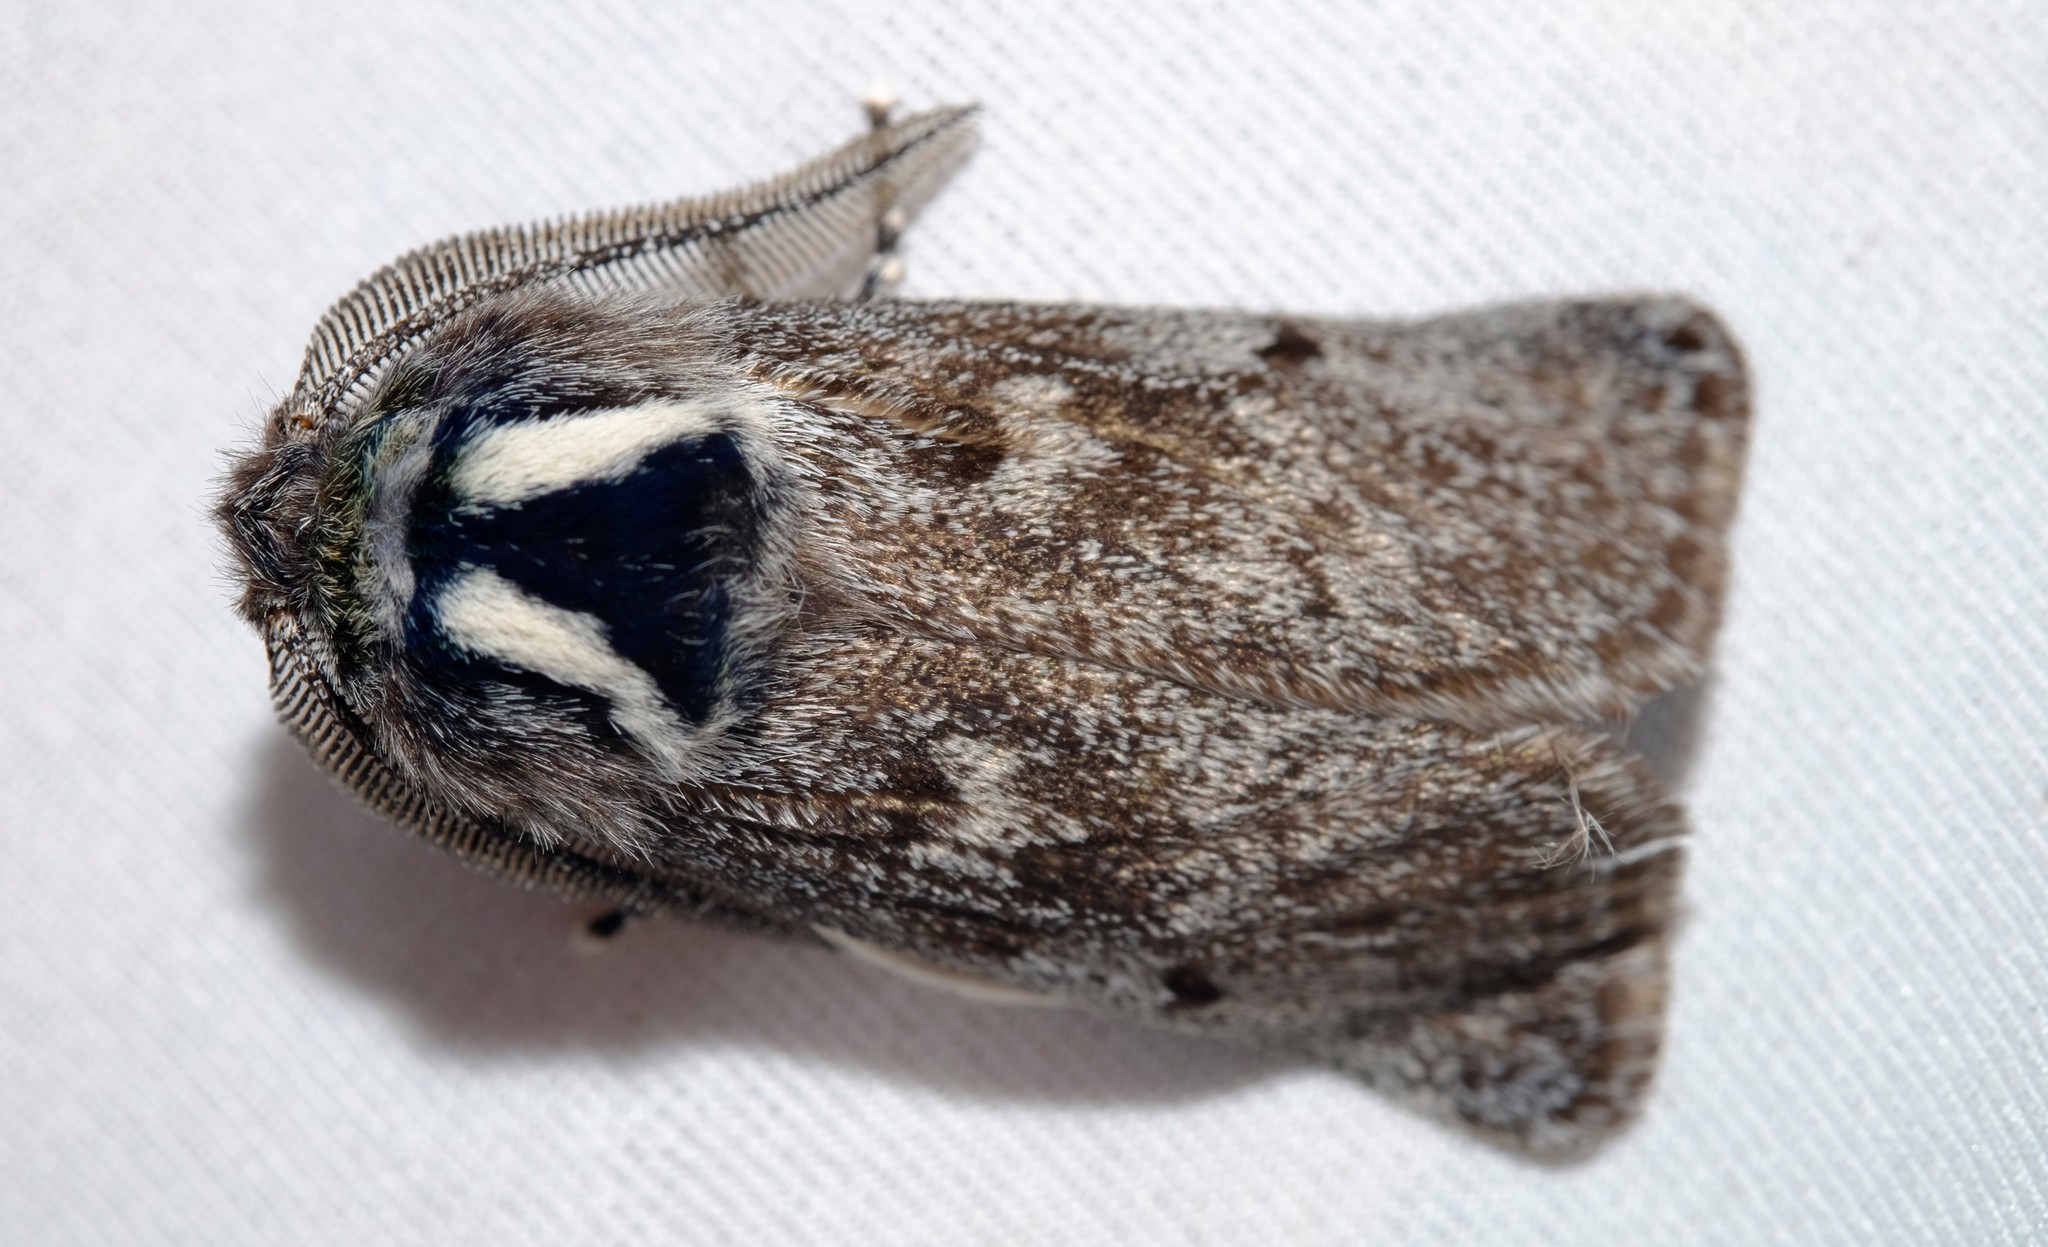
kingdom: Animalia
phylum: Arthropoda
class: Insecta
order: Lepidoptera
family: Cossidae
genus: Ptilomacra
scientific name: Ptilomacra senex
